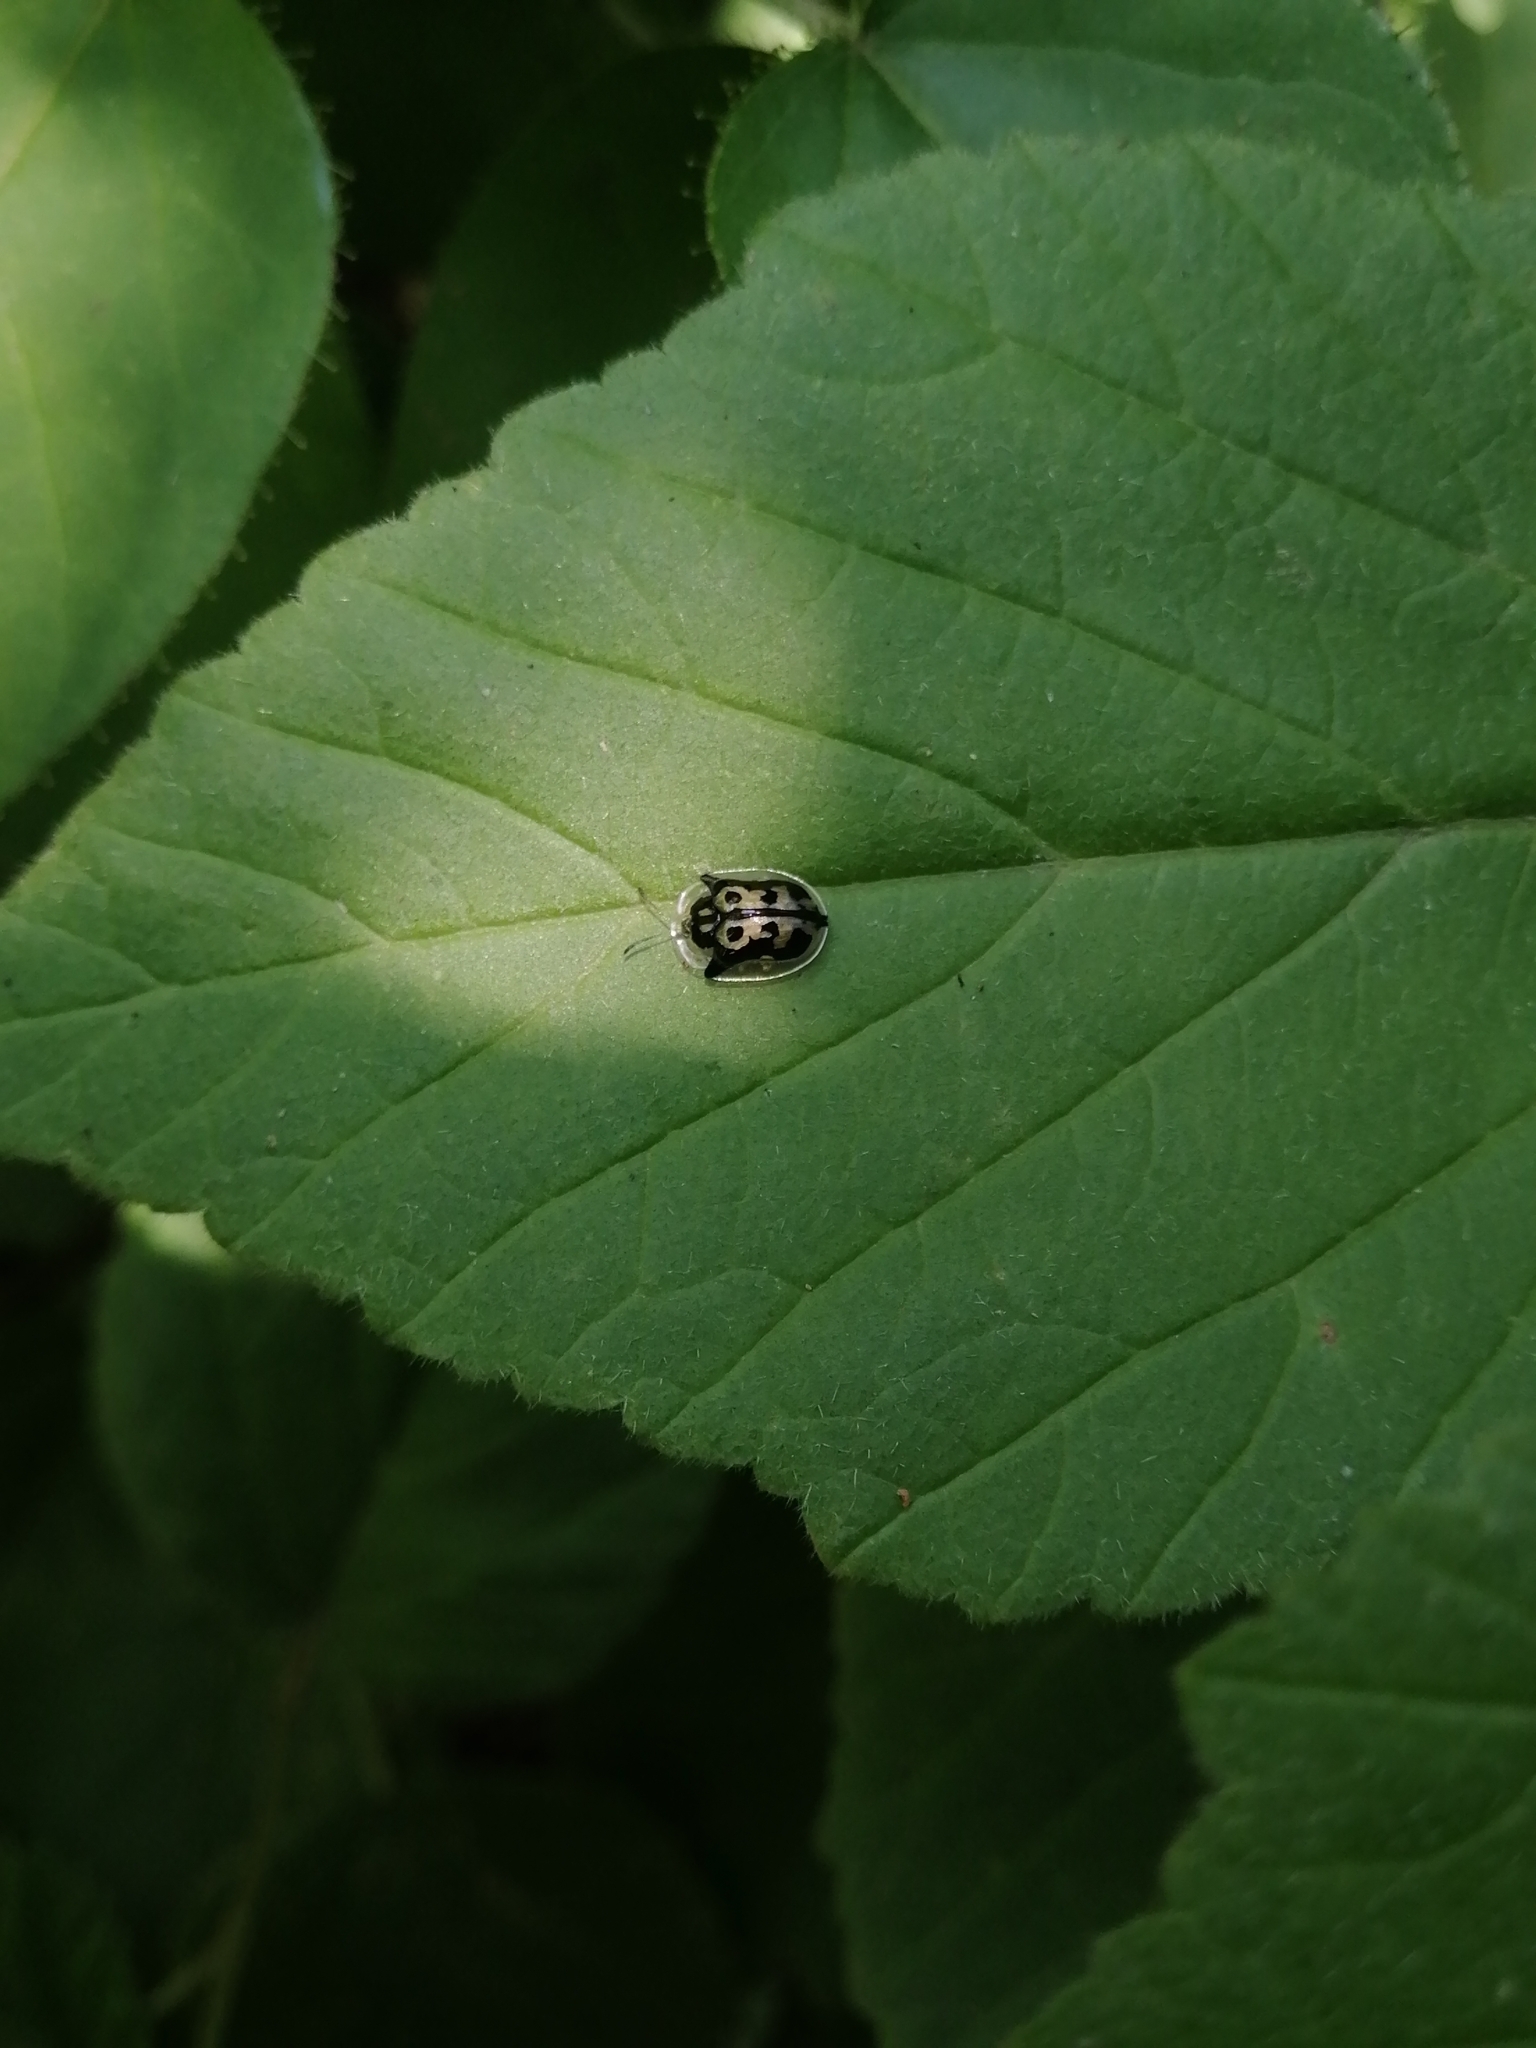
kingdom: Animalia
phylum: Arthropoda
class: Insecta
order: Coleoptera
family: Chrysomelidae
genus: Deloyala
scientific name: Deloyala lecontei
